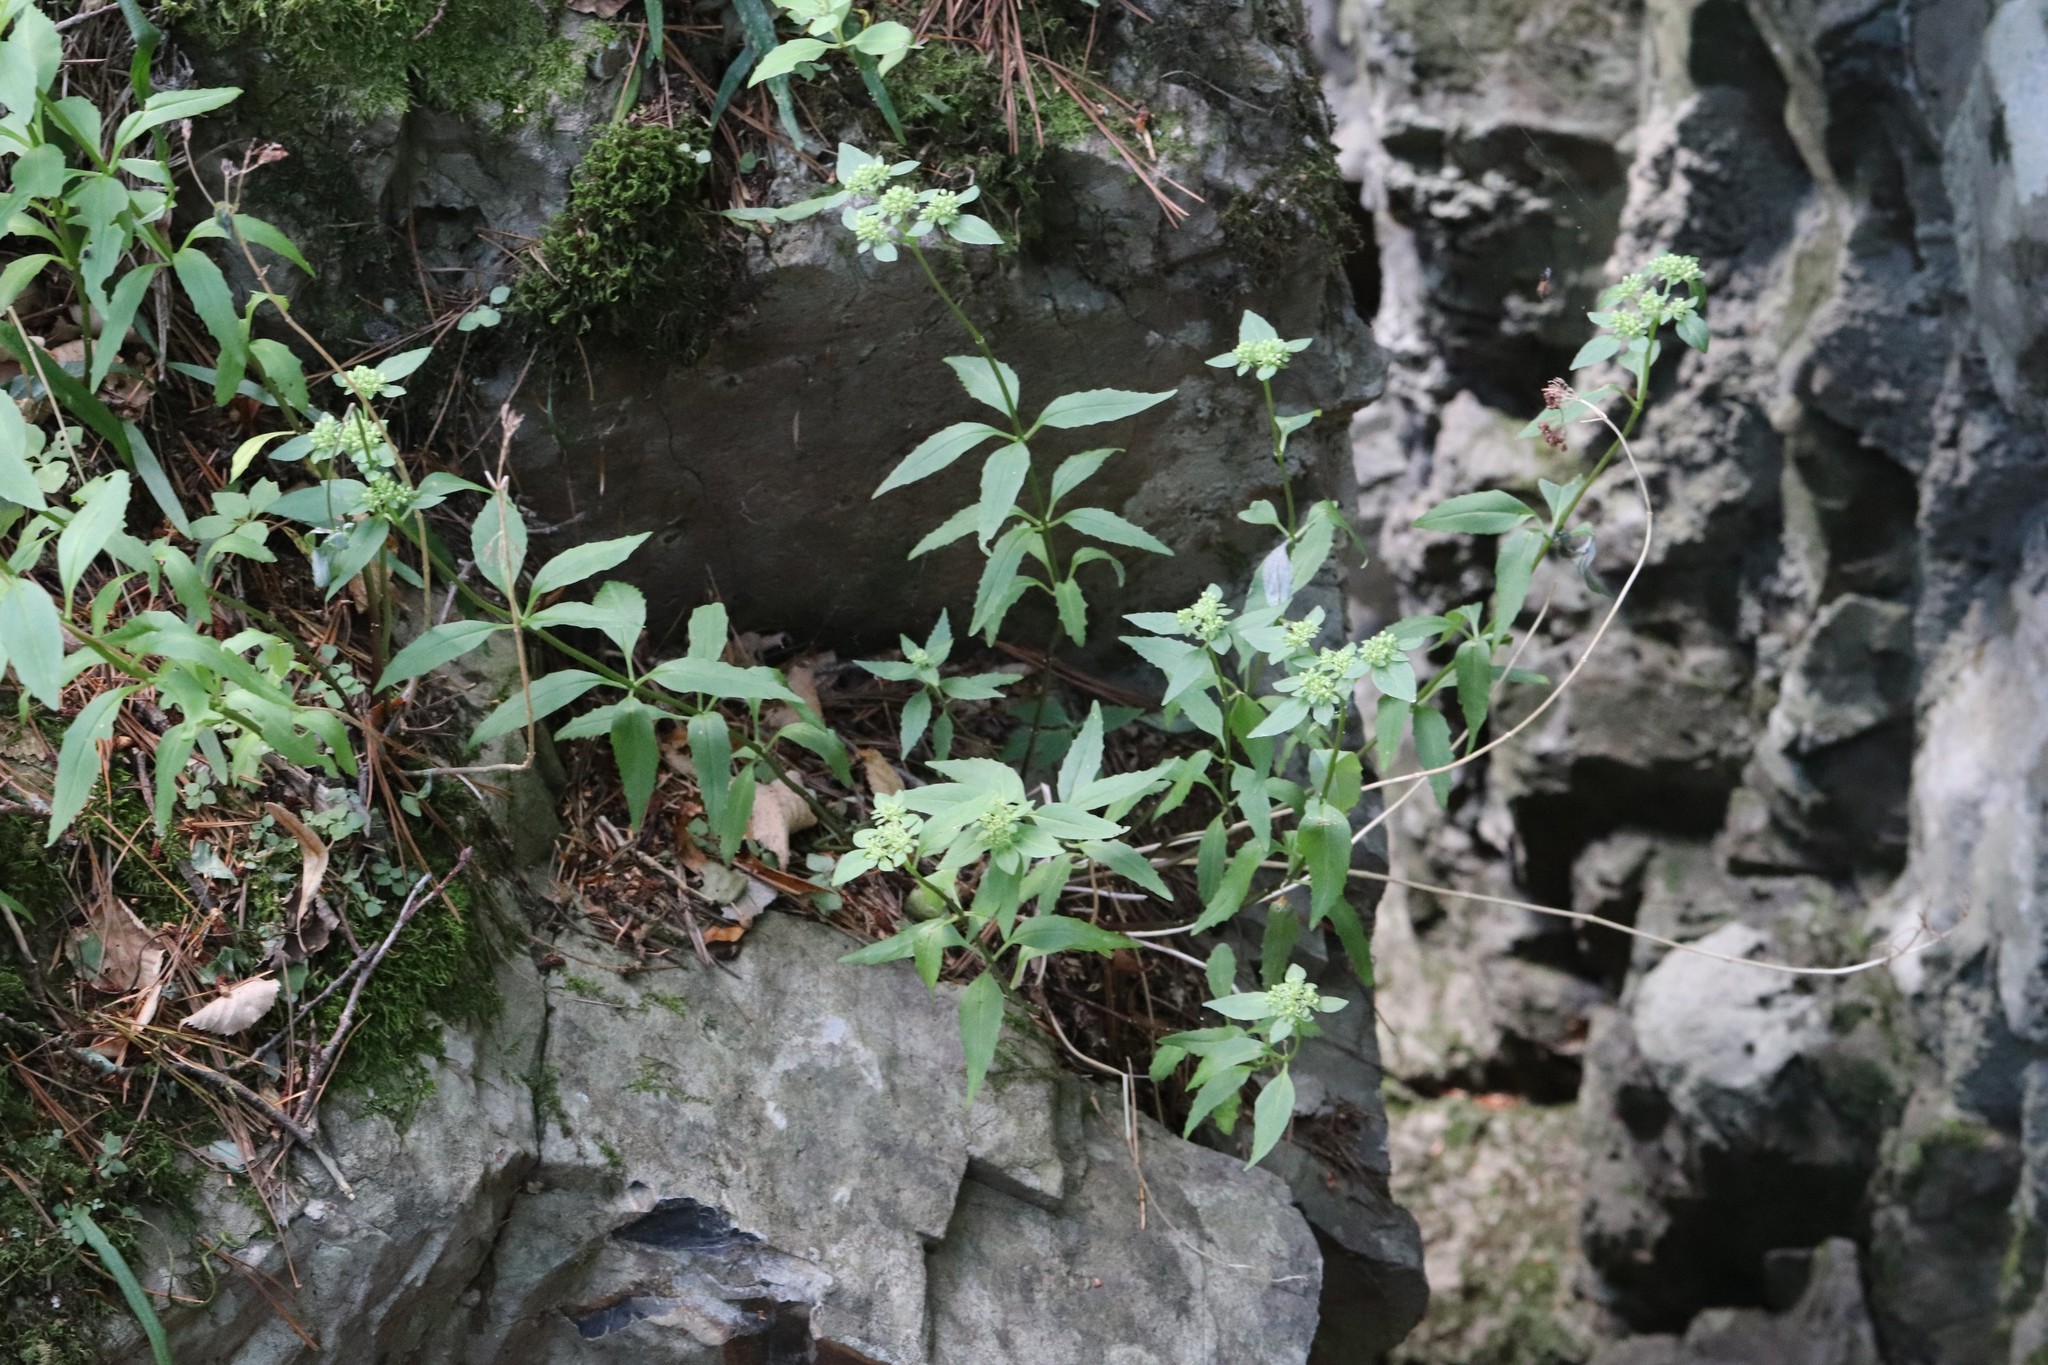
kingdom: Plantae
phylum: Tracheophyta
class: Magnoliopsida
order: Saxifragales
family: Crassulaceae
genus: Hylotelephium
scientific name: Hylotelephium viviparum
